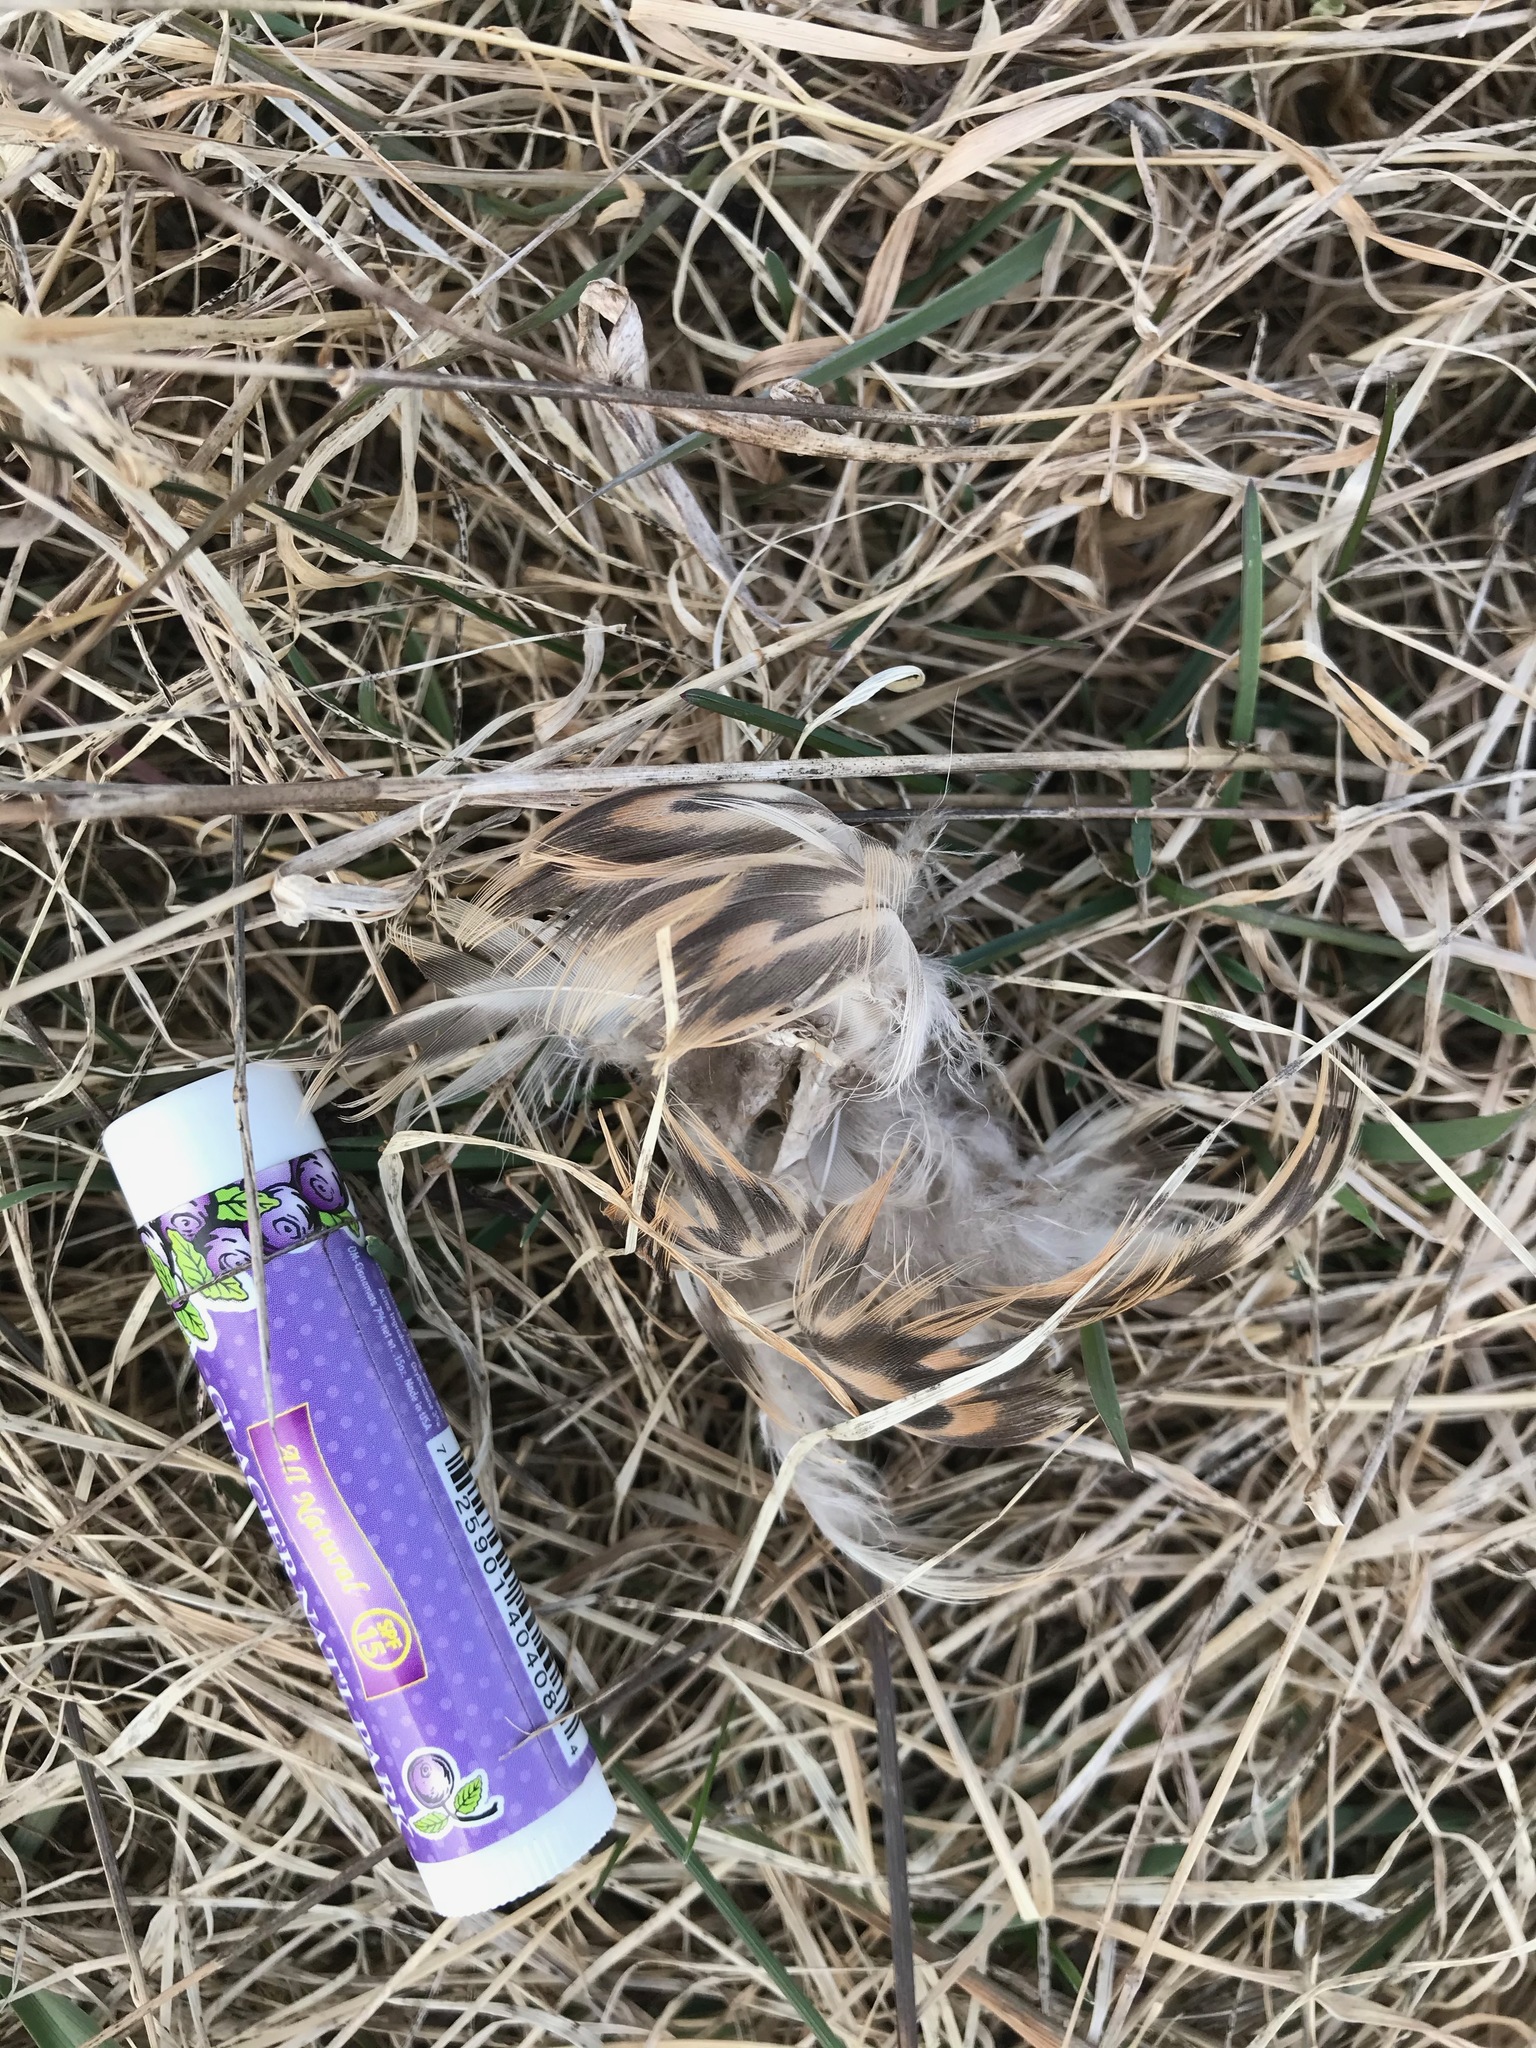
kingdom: Animalia
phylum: Chordata
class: Aves
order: Anseriformes
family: Anatidae
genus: Anas
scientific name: Anas platyrhynchos
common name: Mallard
